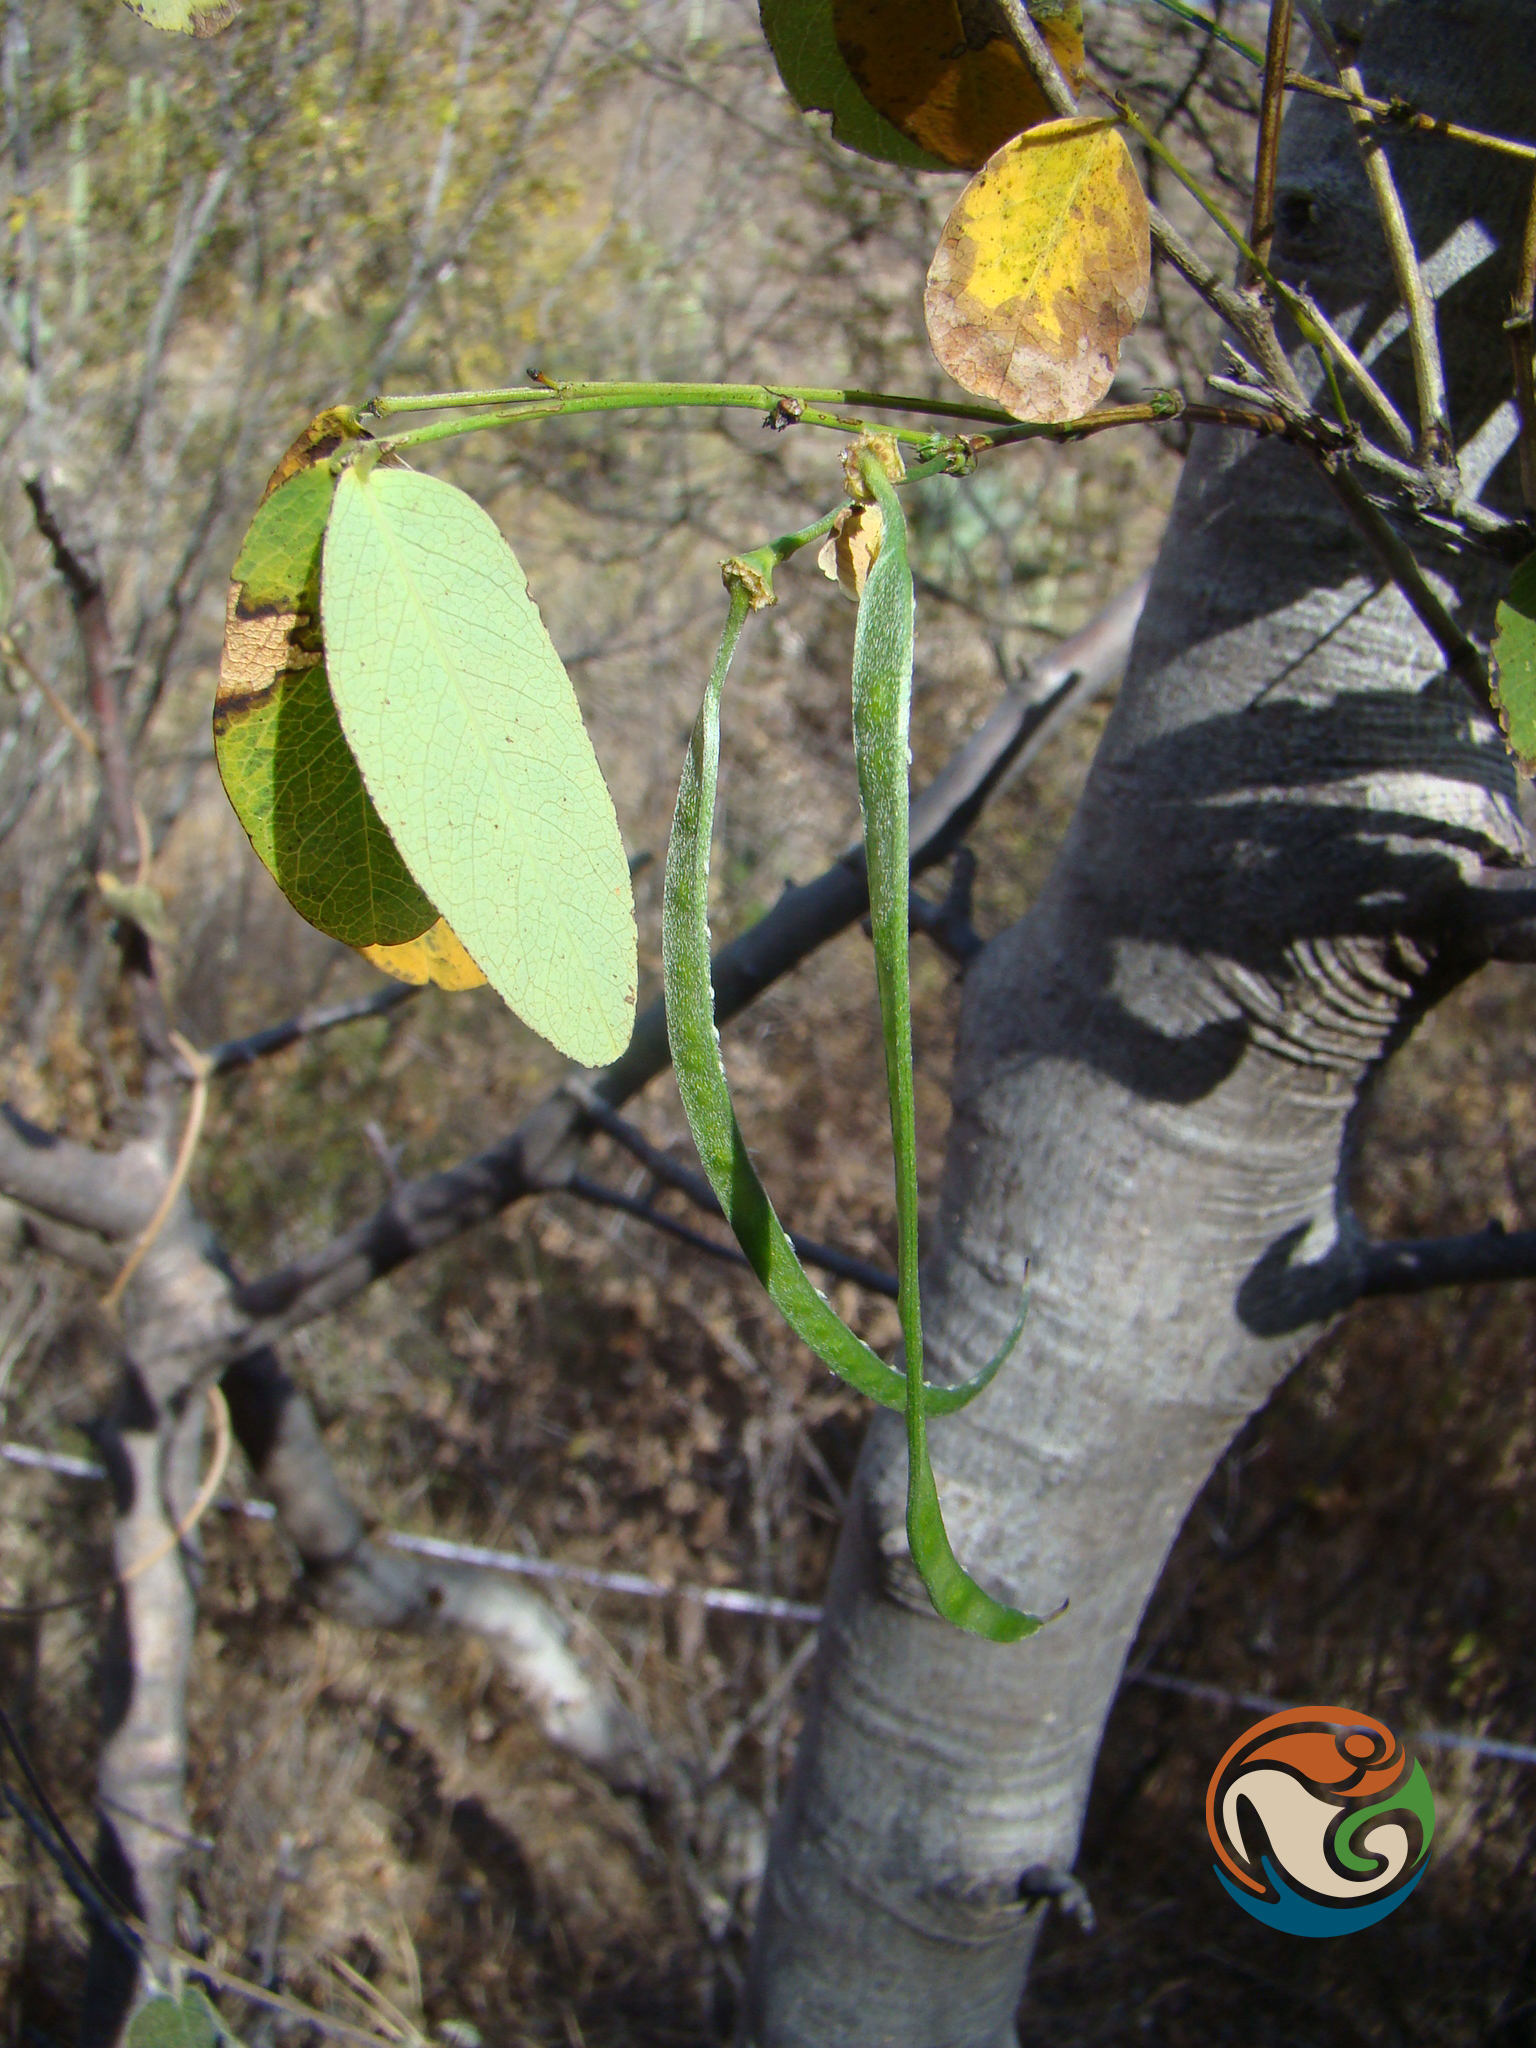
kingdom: Plantae
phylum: Tracheophyta
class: Magnoliopsida
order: Fabales
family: Fabaceae
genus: Senna
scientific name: Senna holwayana
